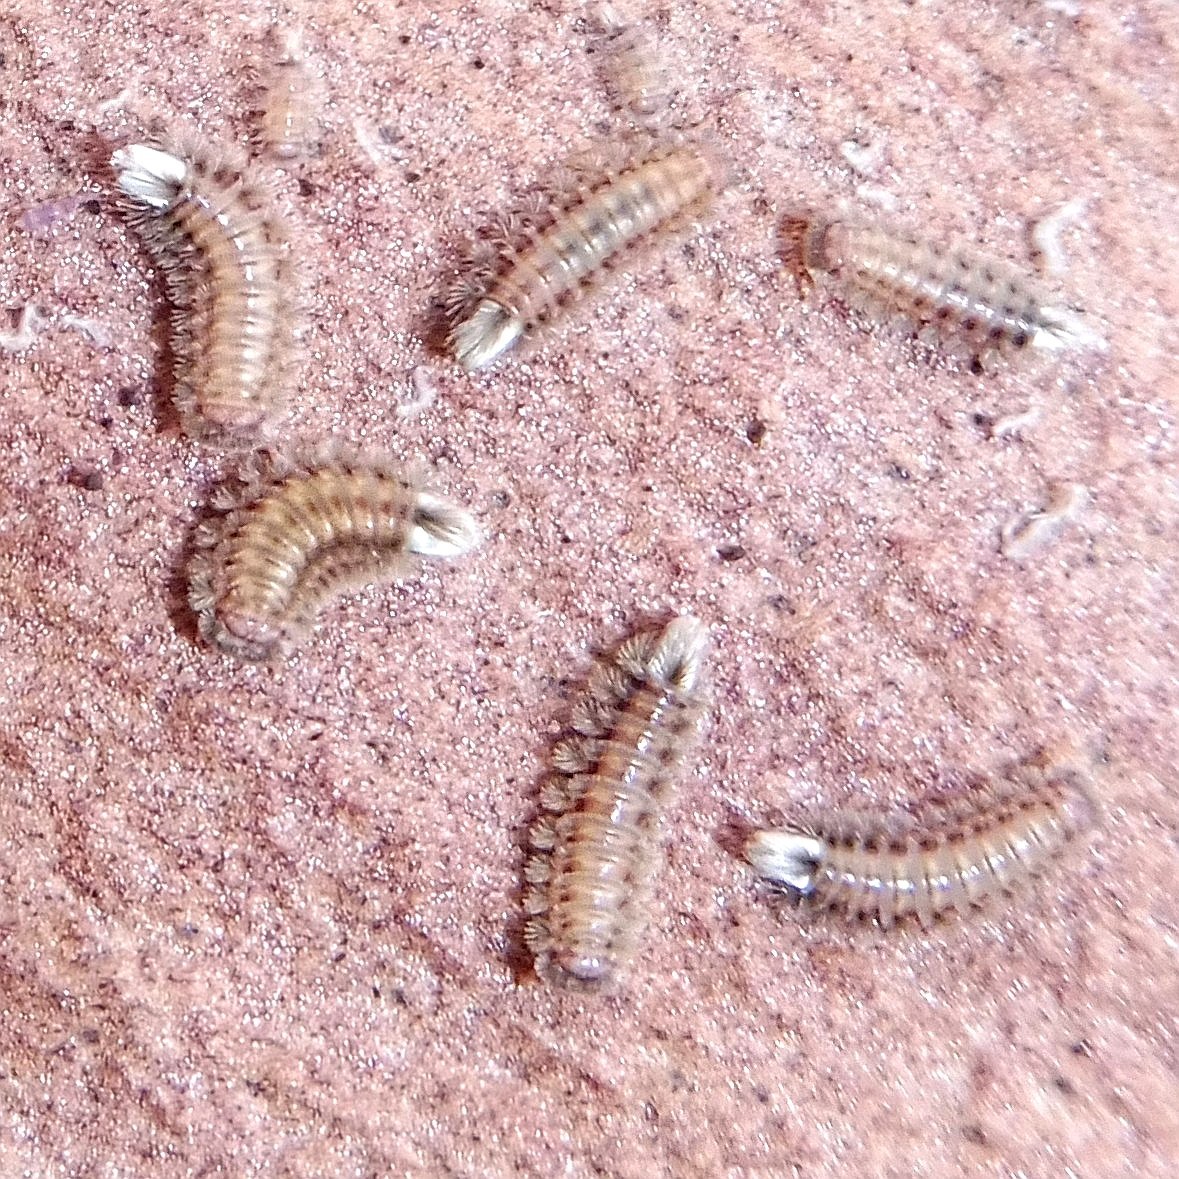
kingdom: Animalia
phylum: Arthropoda
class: Diplopoda
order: Polyxenida
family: Polyxenidae
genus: Polyxenus
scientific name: Polyxenus lagurus
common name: Bristly millipede
